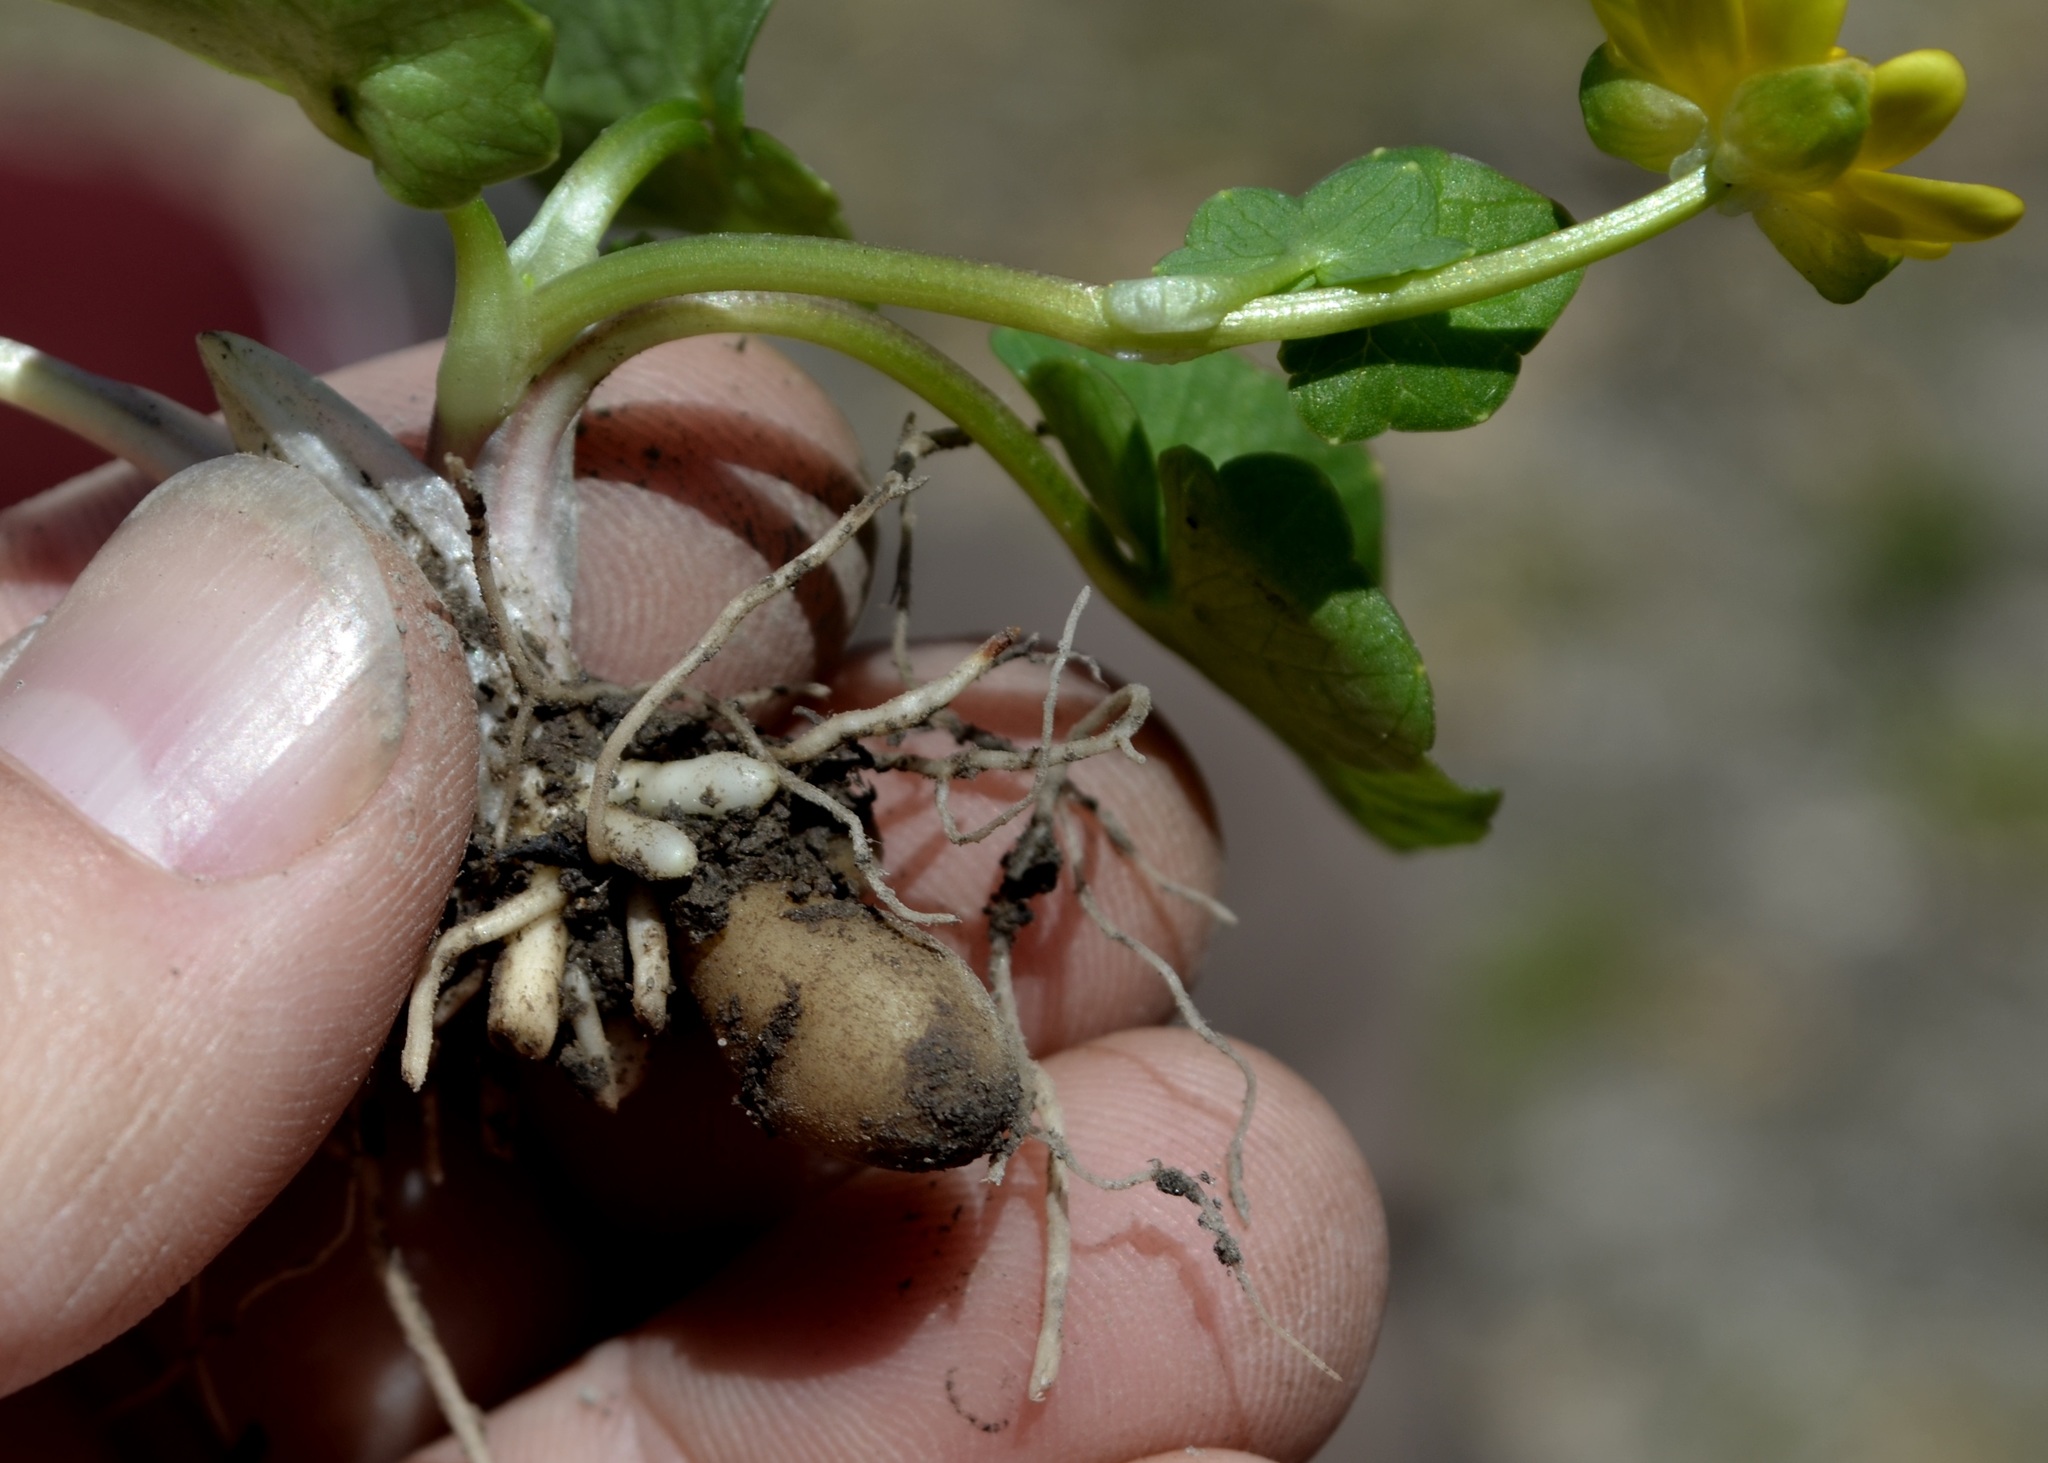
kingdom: Plantae
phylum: Tracheophyta
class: Magnoliopsida
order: Ranunculales
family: Ranunculaceae
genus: Ficaria
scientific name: Ficaria verna
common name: Lesser celandine
